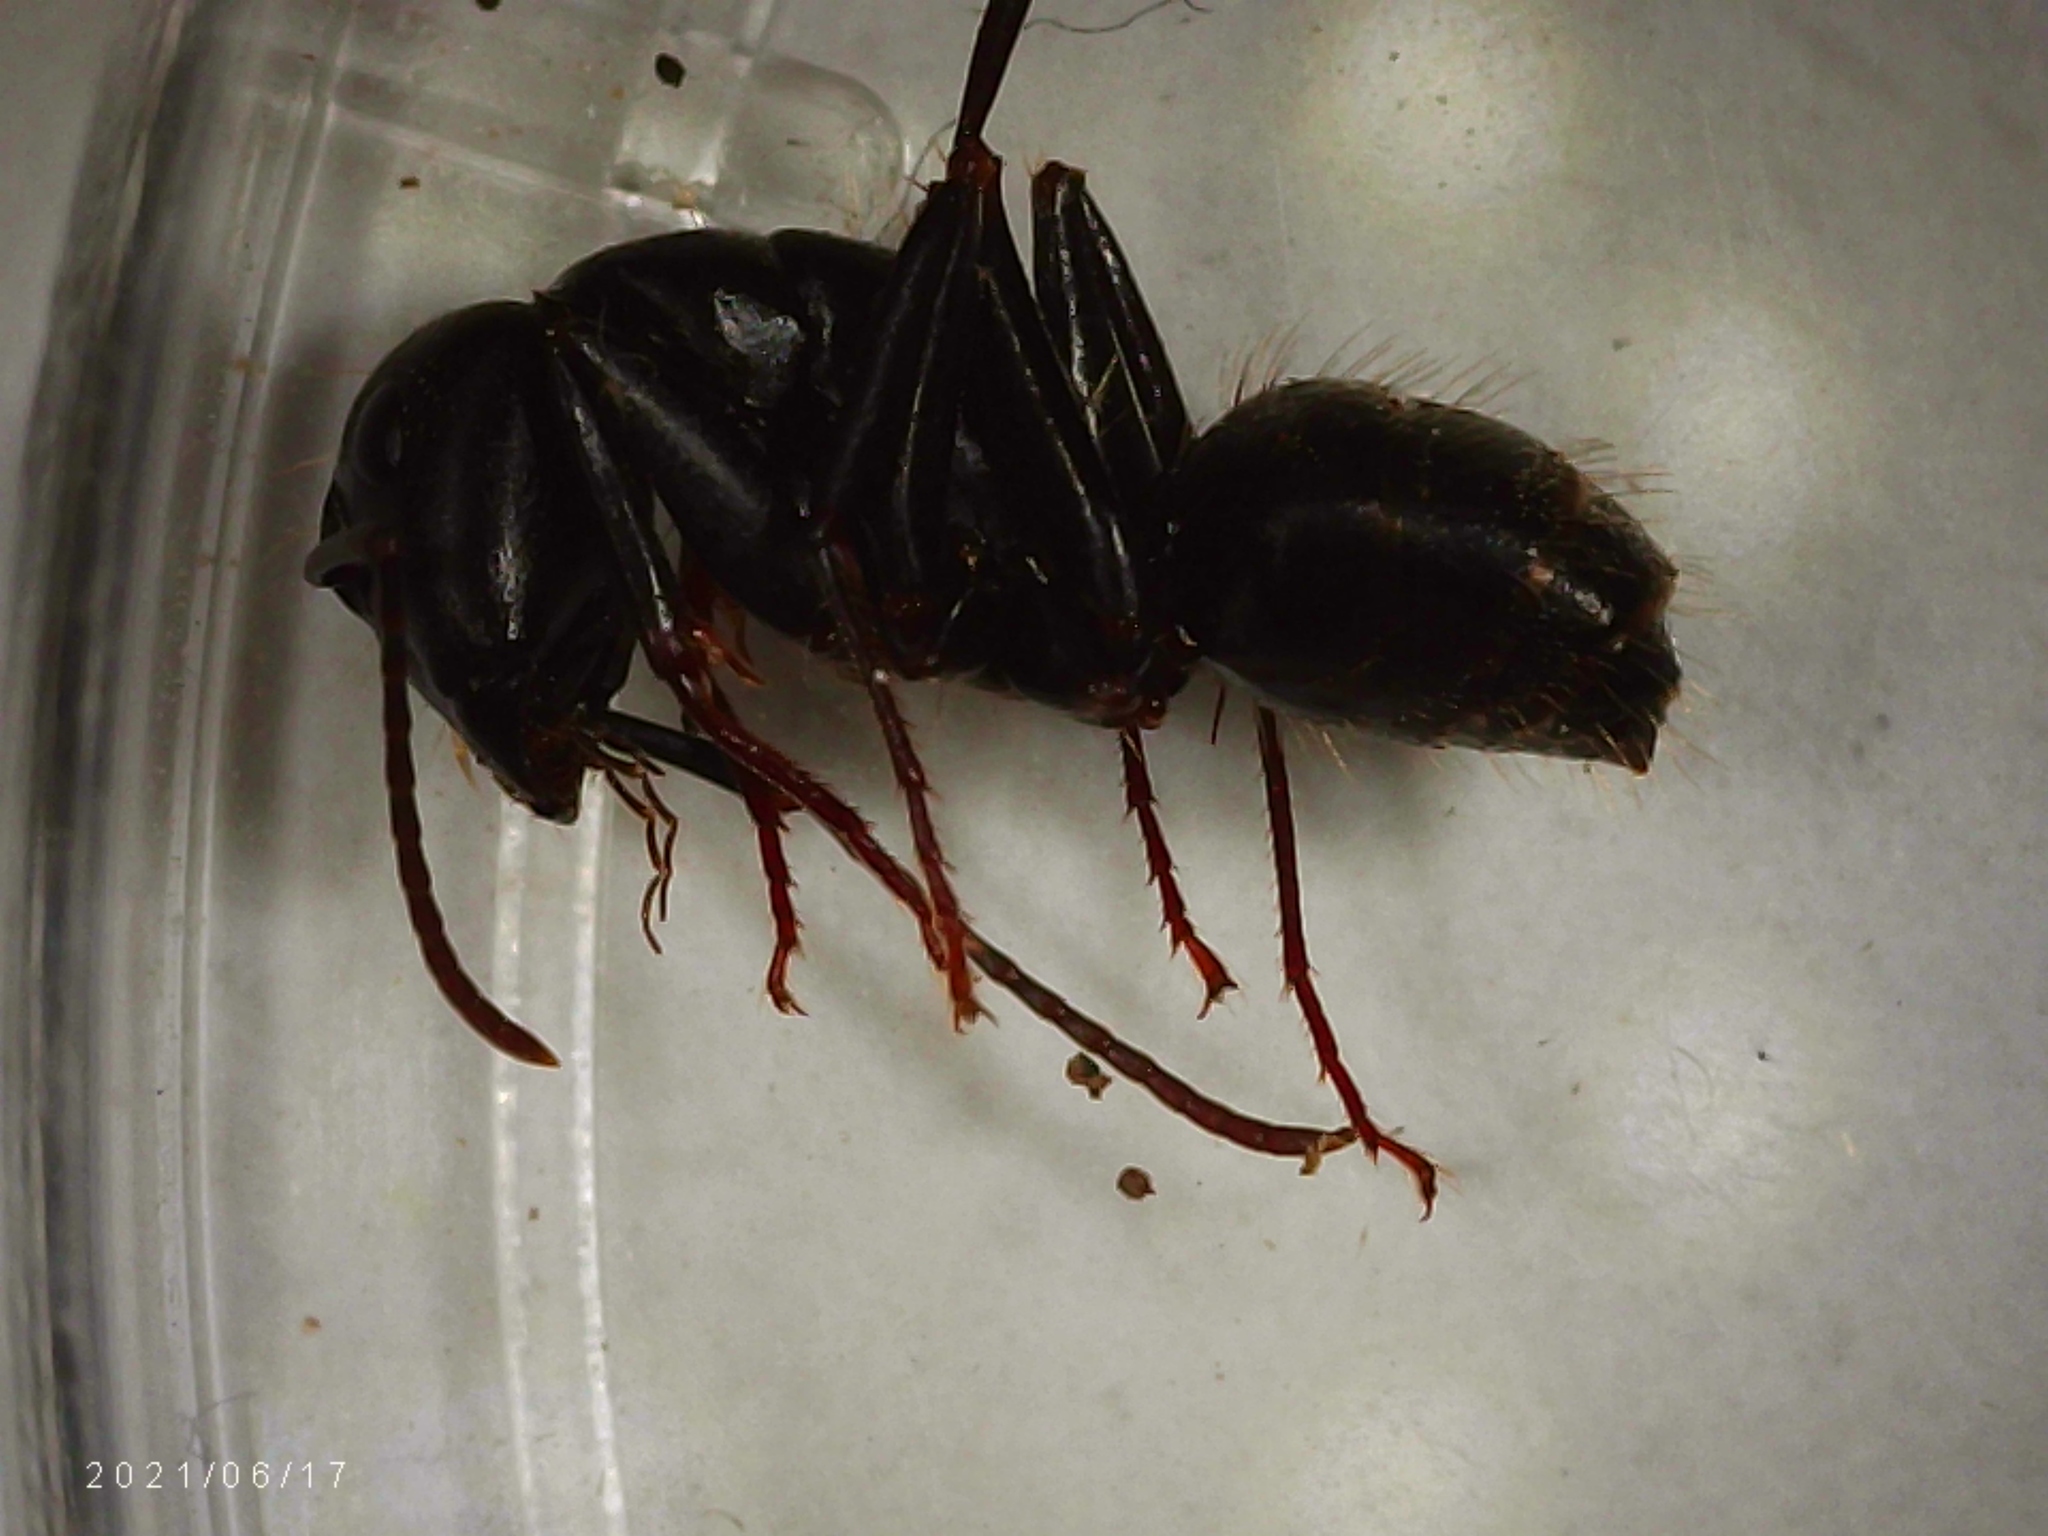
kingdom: Animalia
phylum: Arthropoda
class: Insecta
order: Hymenoptera
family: Formicidae
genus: Camponotus
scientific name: Camponotus pennsylvanicus
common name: Black carpenter ant
